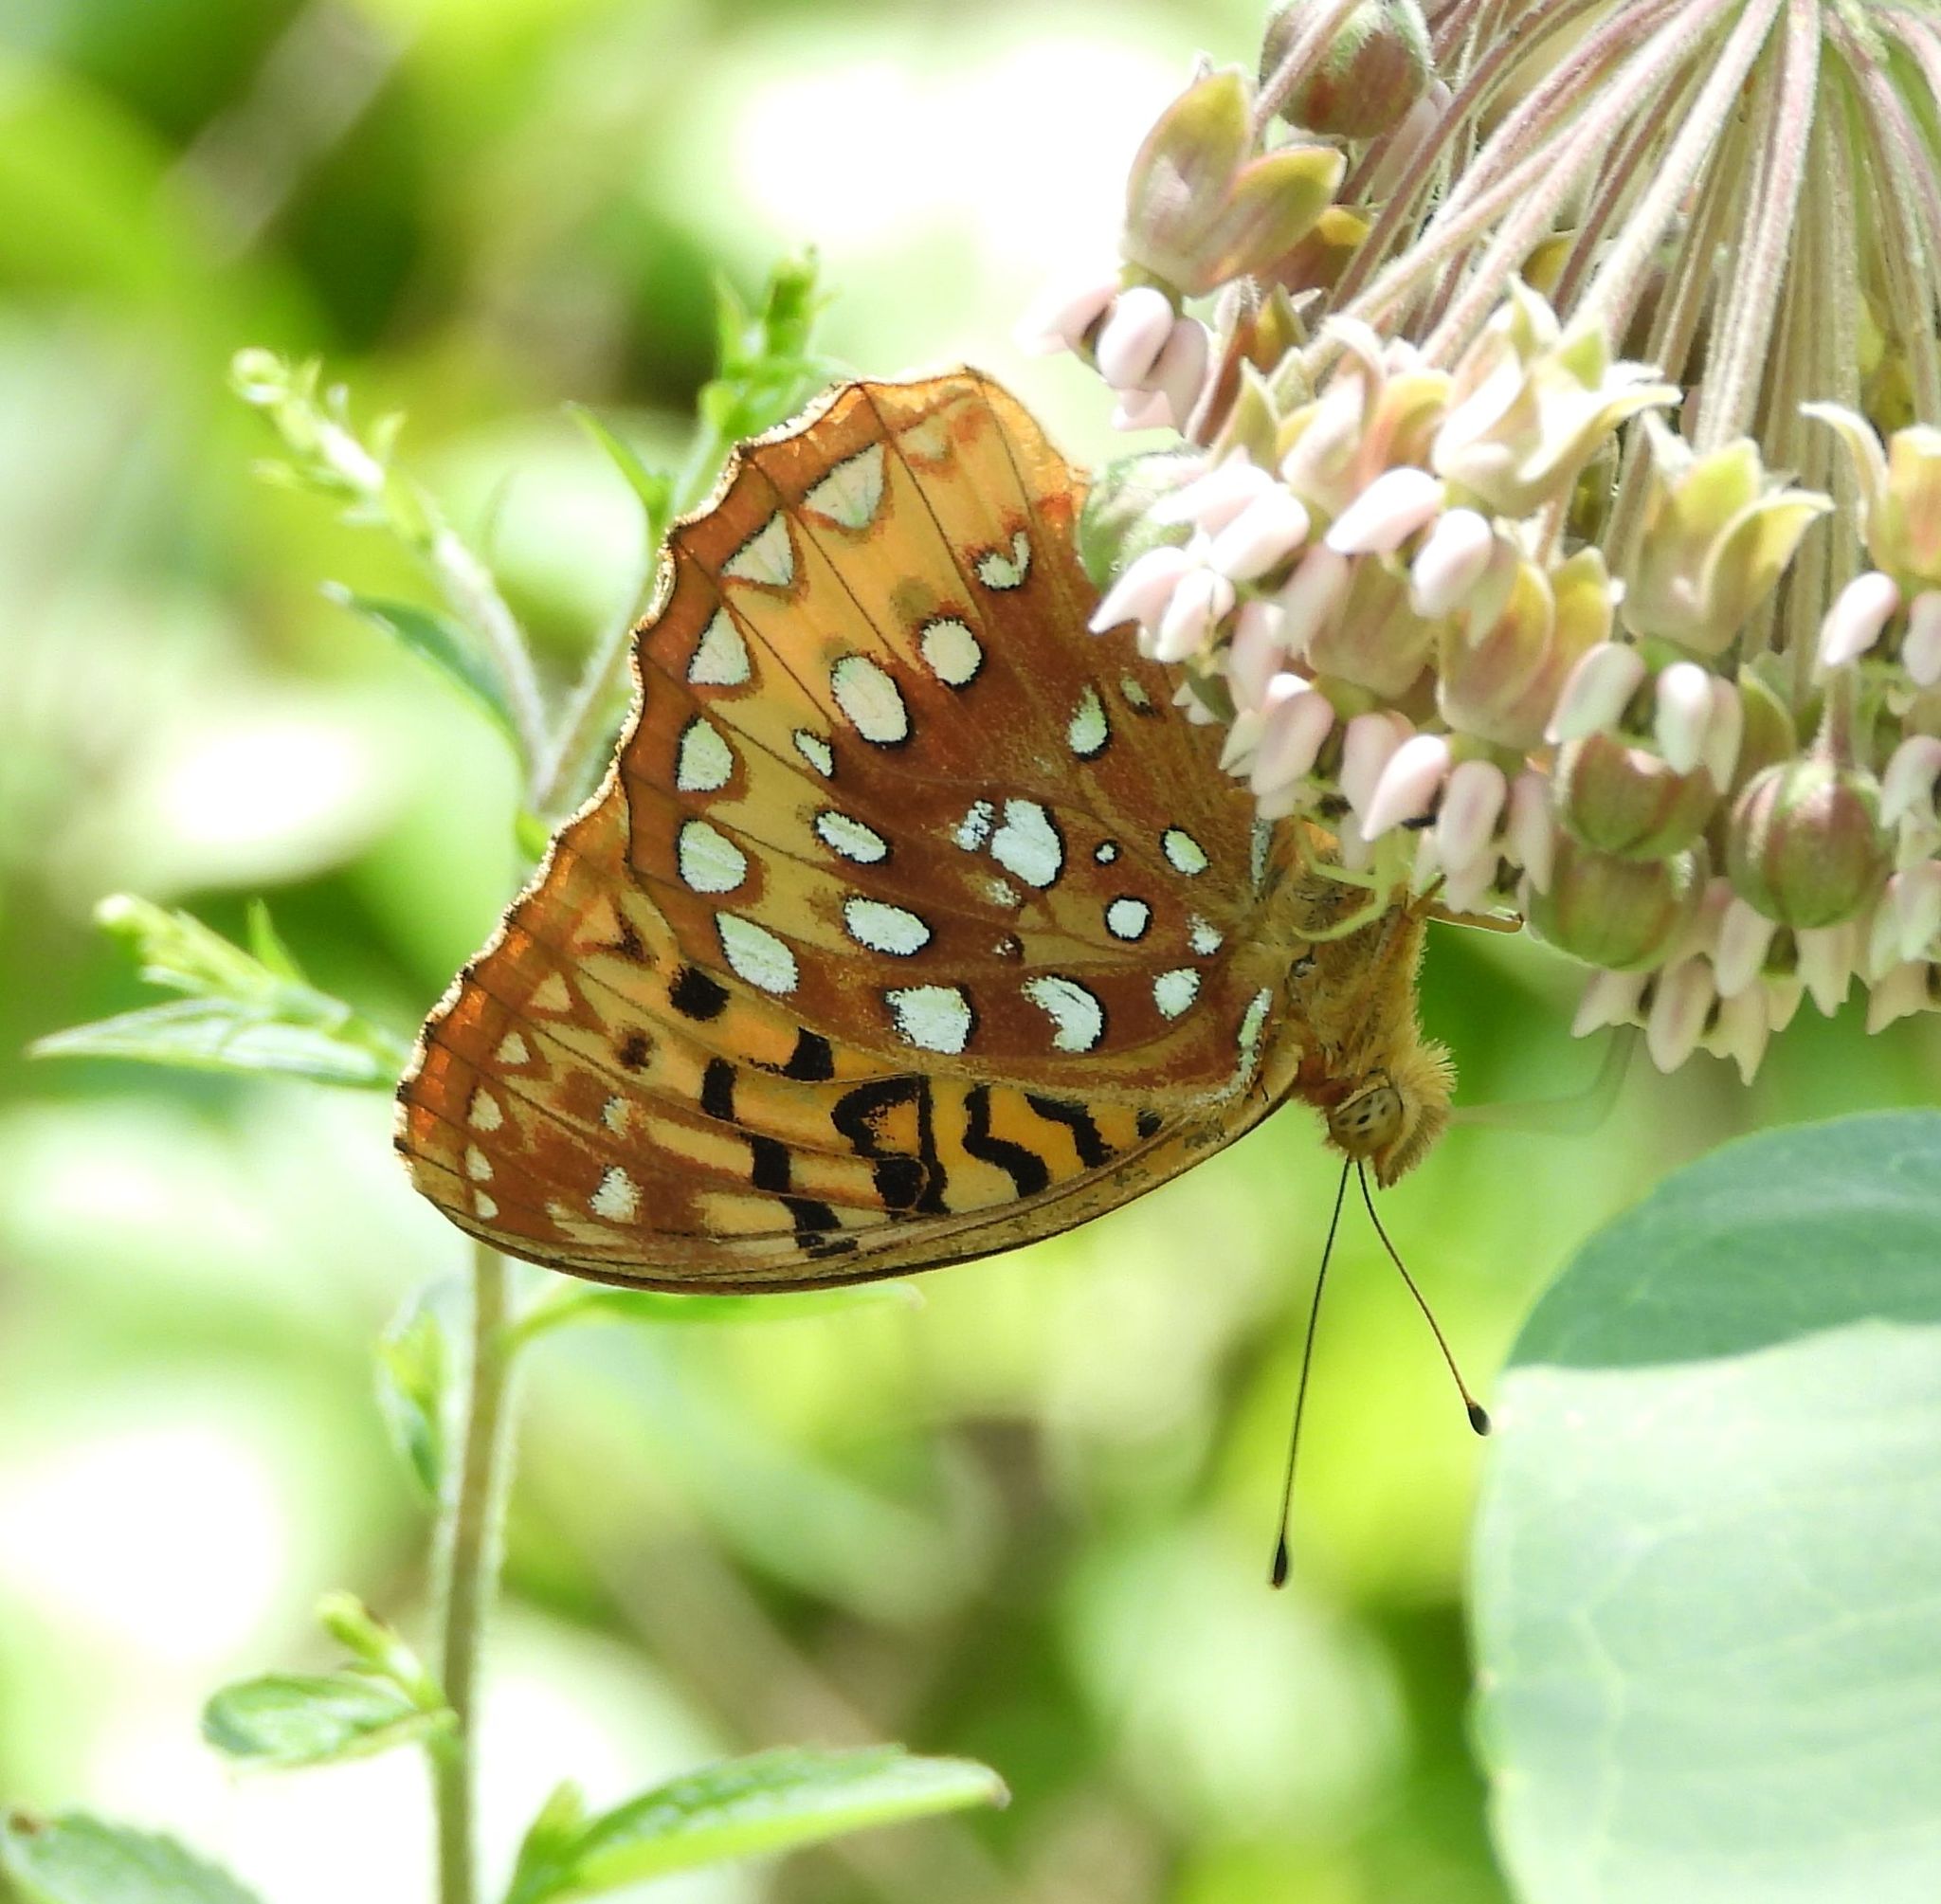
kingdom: Animalia
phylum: Arthropoda
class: Insecta
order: Lepidoptera
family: Nymphalidae
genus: Speyeria
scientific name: Speyeria cybele
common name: Great spangled fritillary
